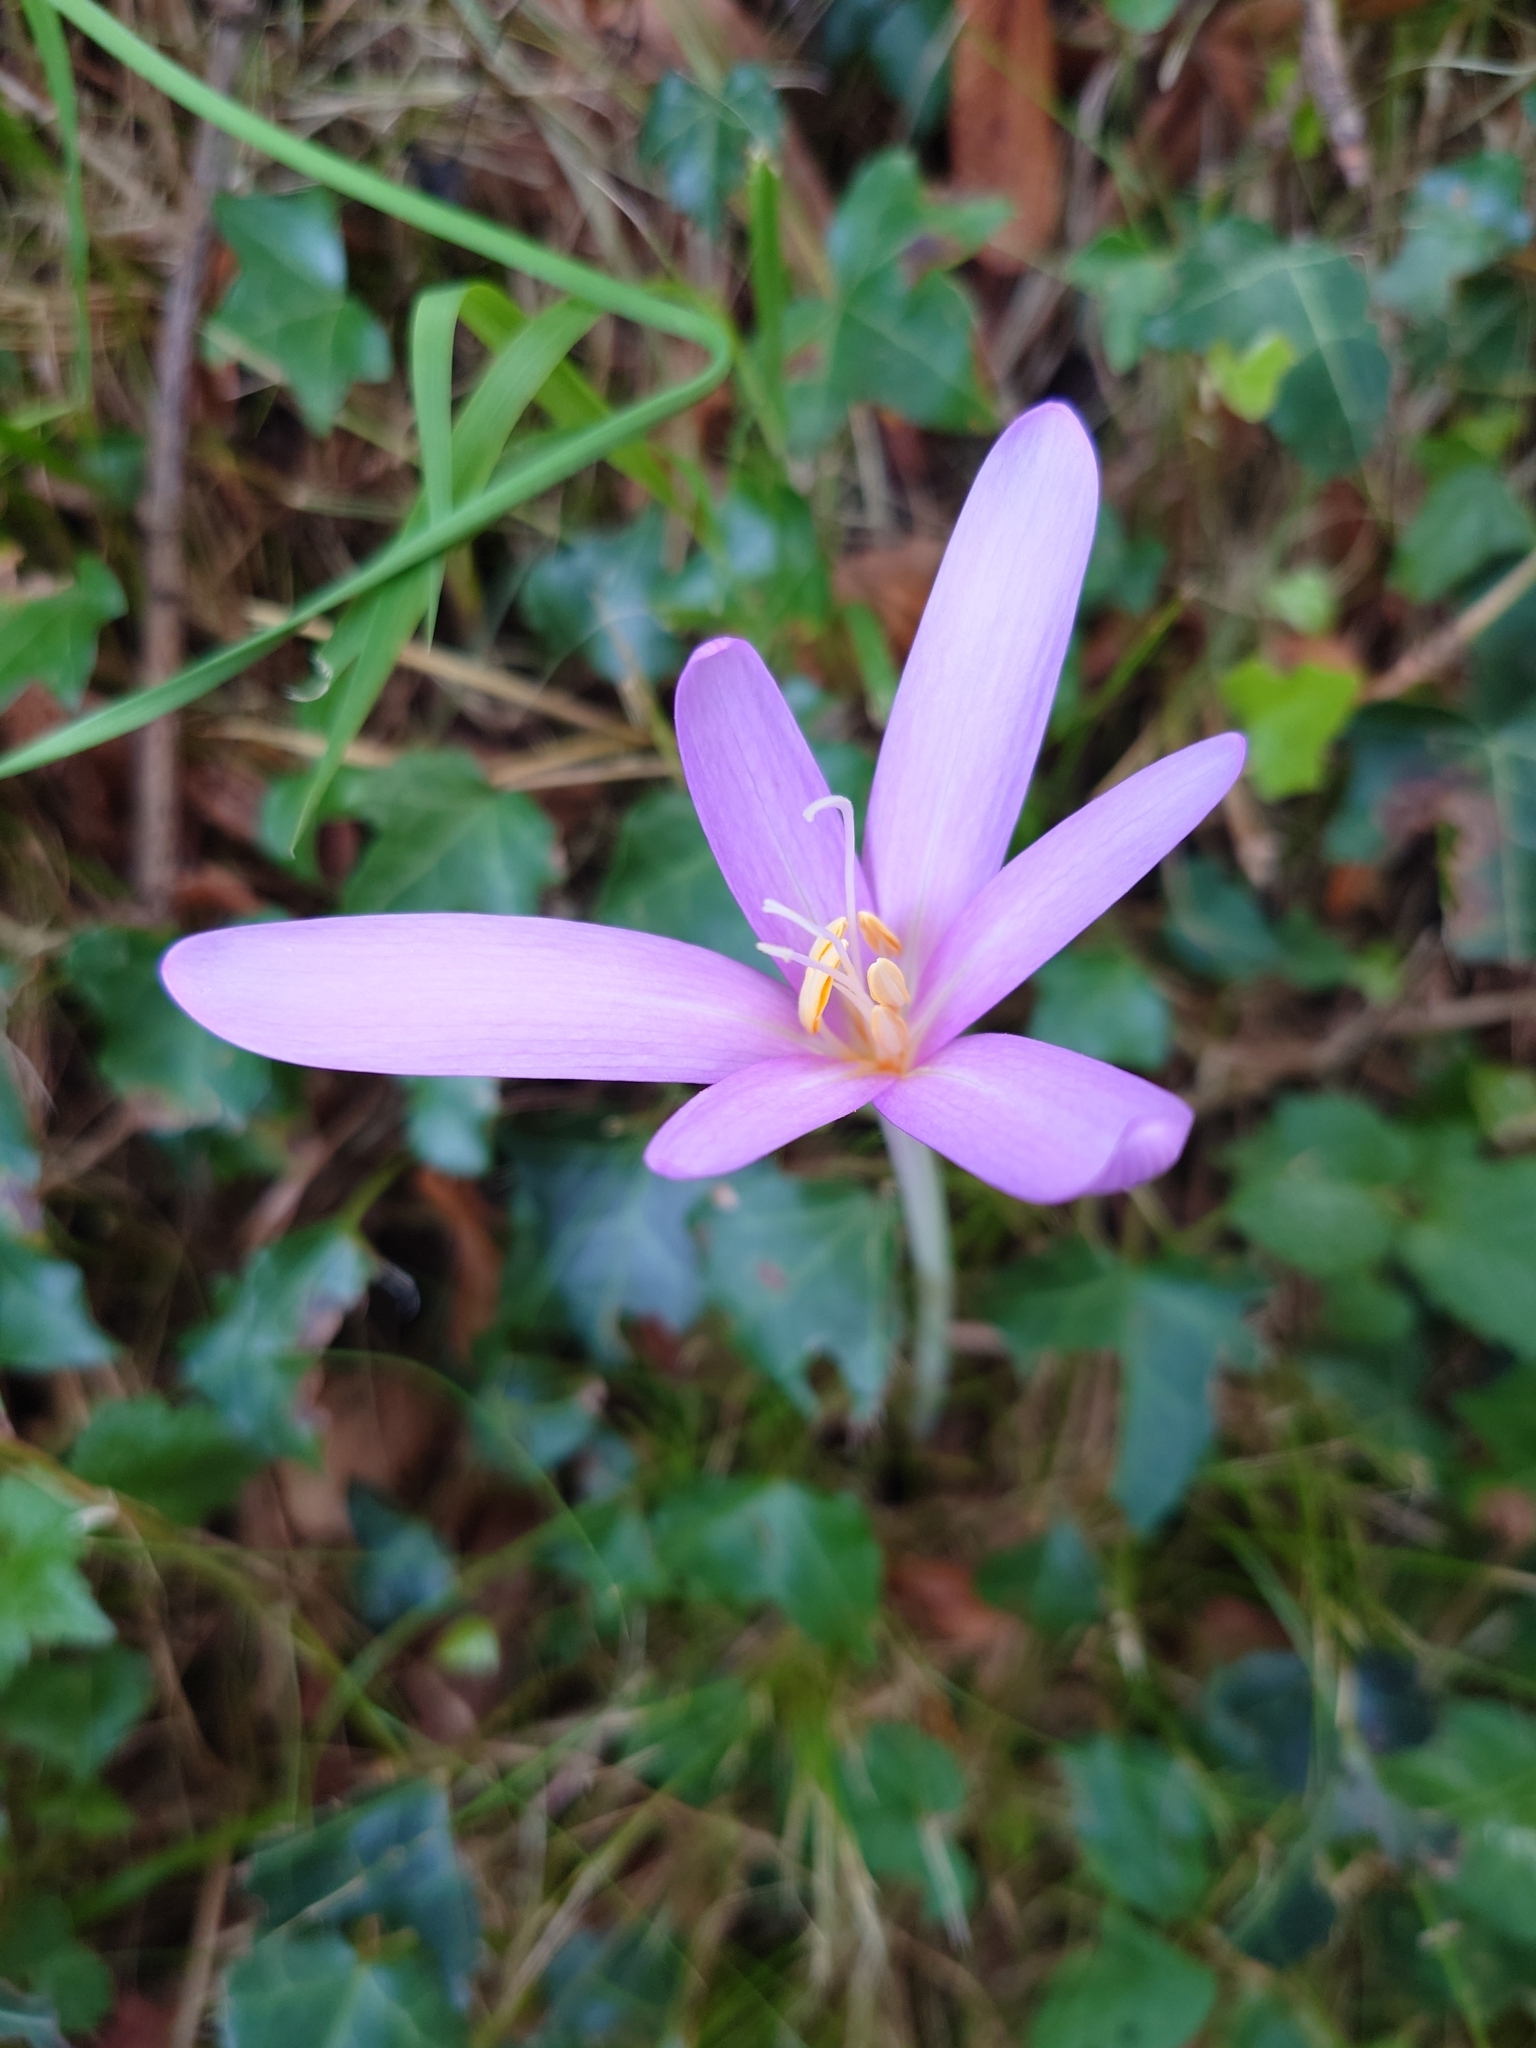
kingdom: Plantae
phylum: Tracheophyta
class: Liliopsida
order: Liliales
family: Colchicaceae
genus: Colchicum
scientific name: Colchicum autumnale
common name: Autumn crocus
